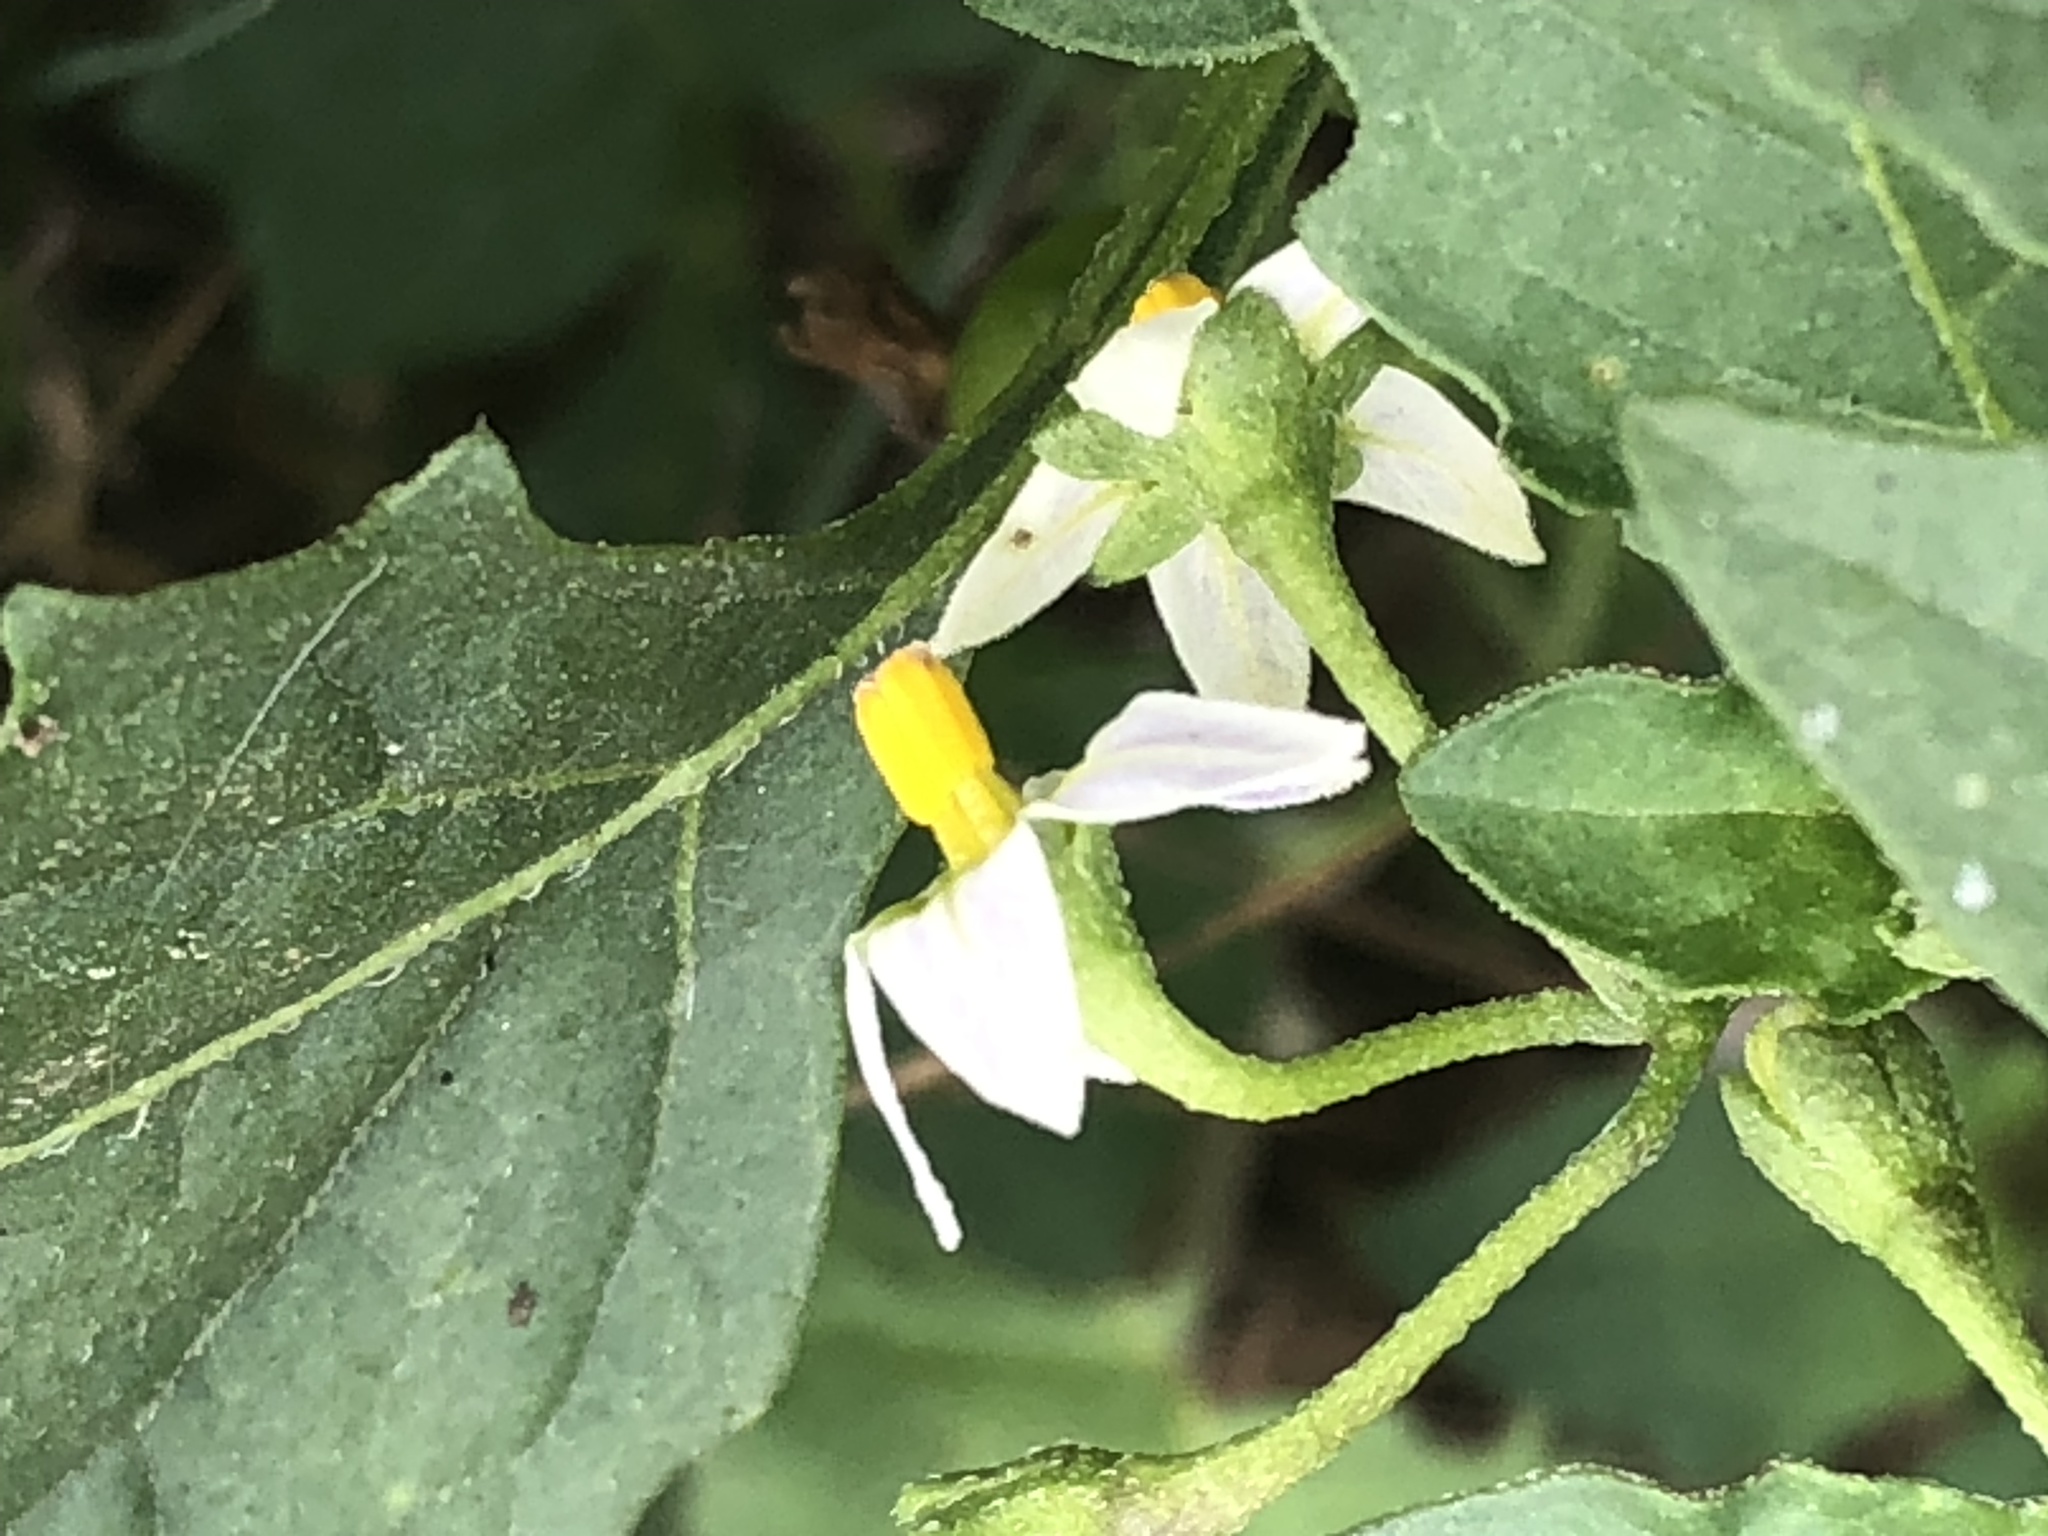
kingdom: Plantae
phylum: Tracheophyta
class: Magnoliopsida
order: Solanales
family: Solanaceae
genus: Solanum
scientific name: Solanum emulans
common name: Eastern black nightshade
